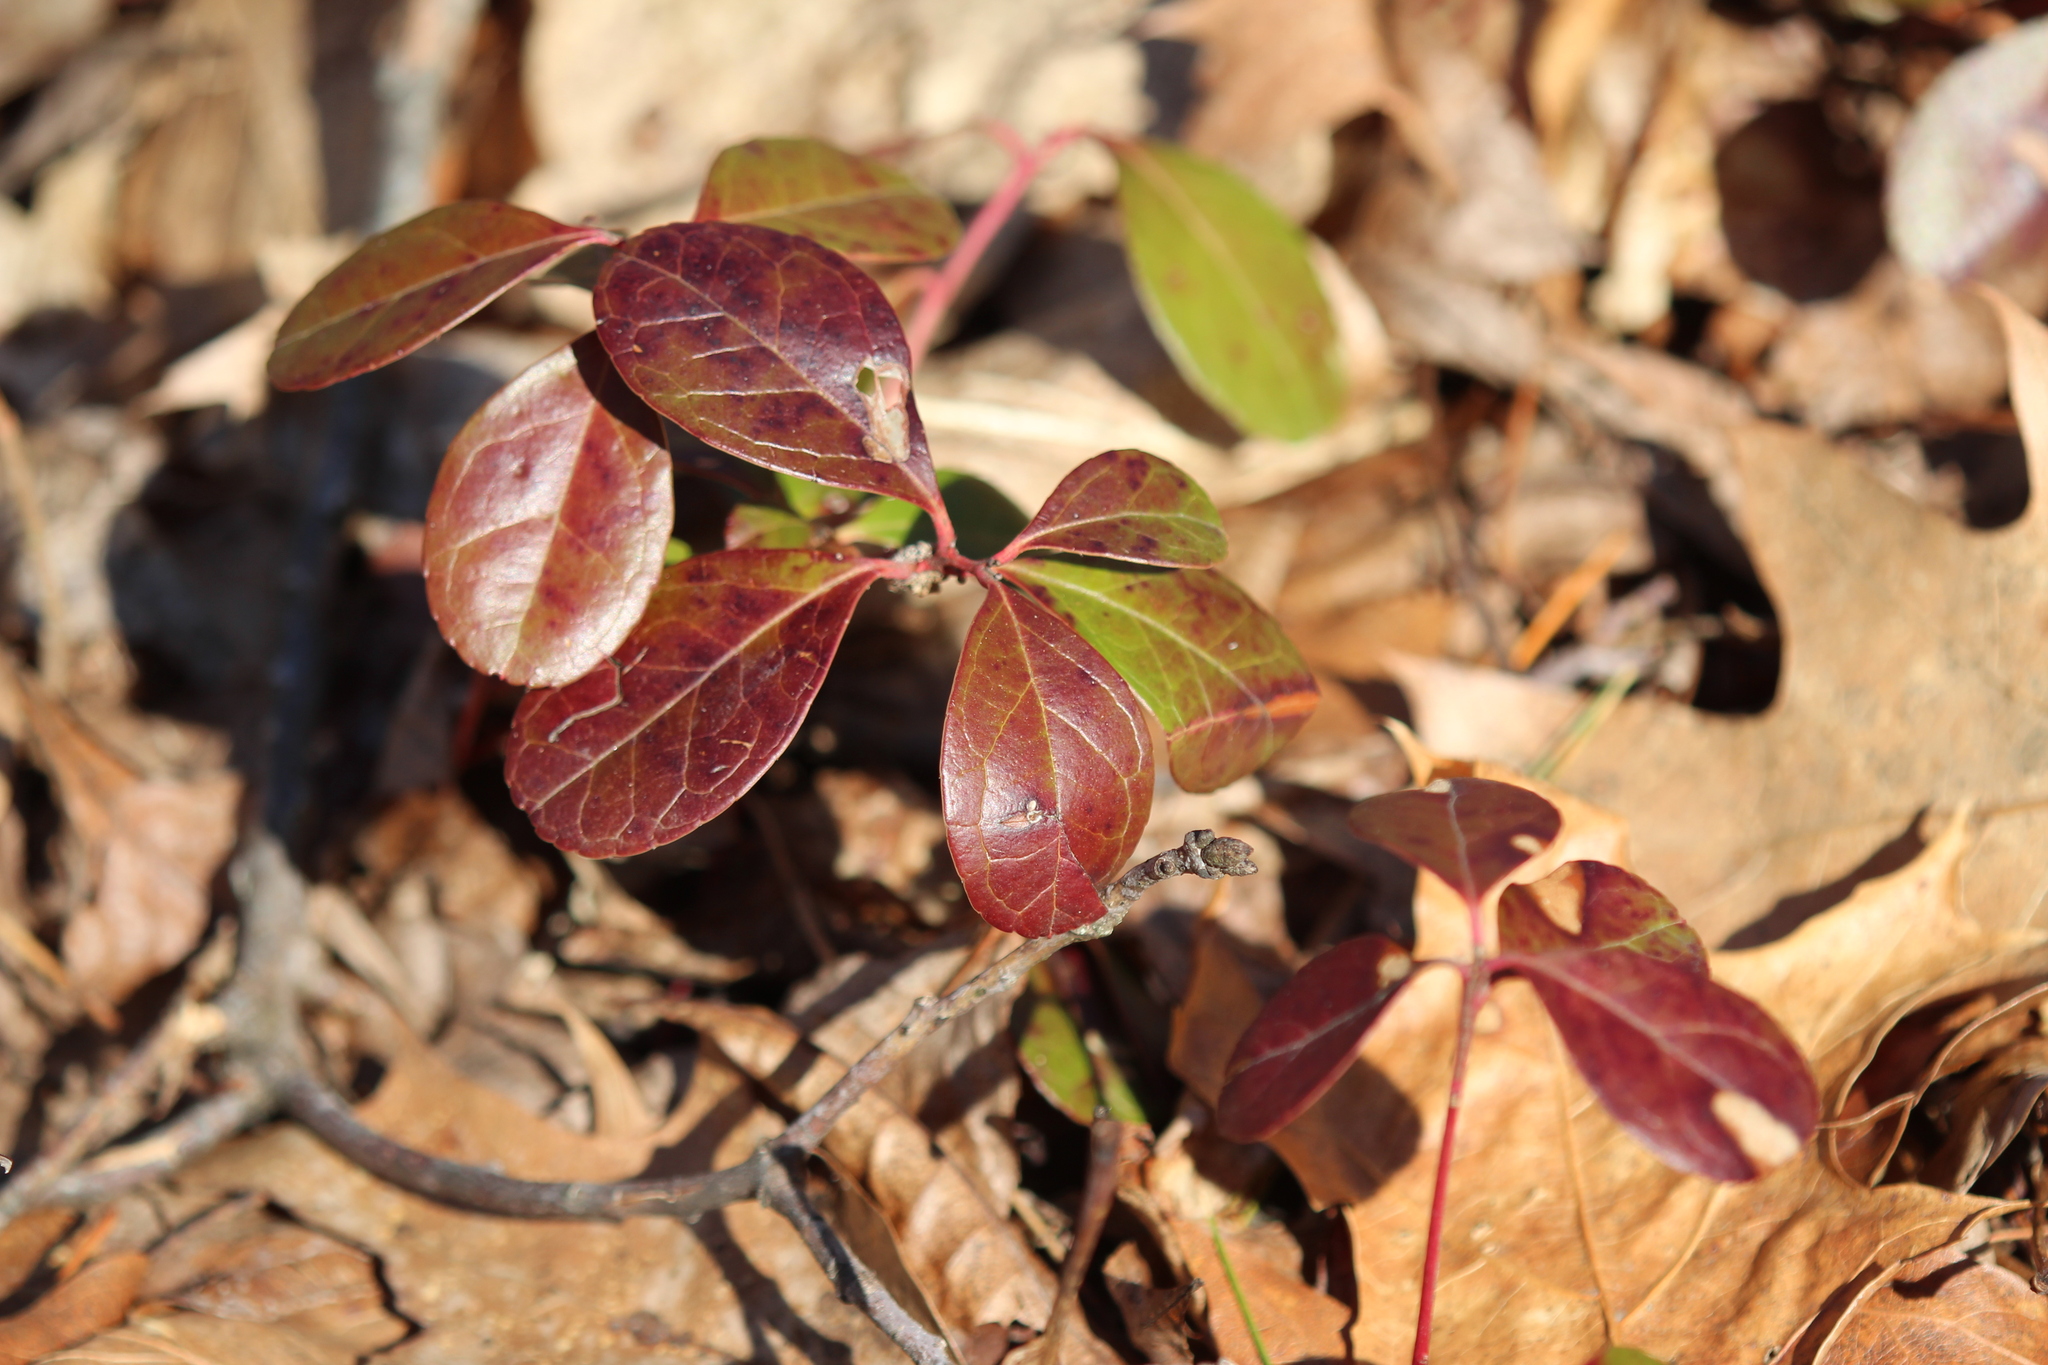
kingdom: Plantae
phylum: Tracheophyta
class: Magnoliopsida
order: Ericales
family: Ericaceae
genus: Gaultheria
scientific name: Gaultheria procumbens
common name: Checkerberry
